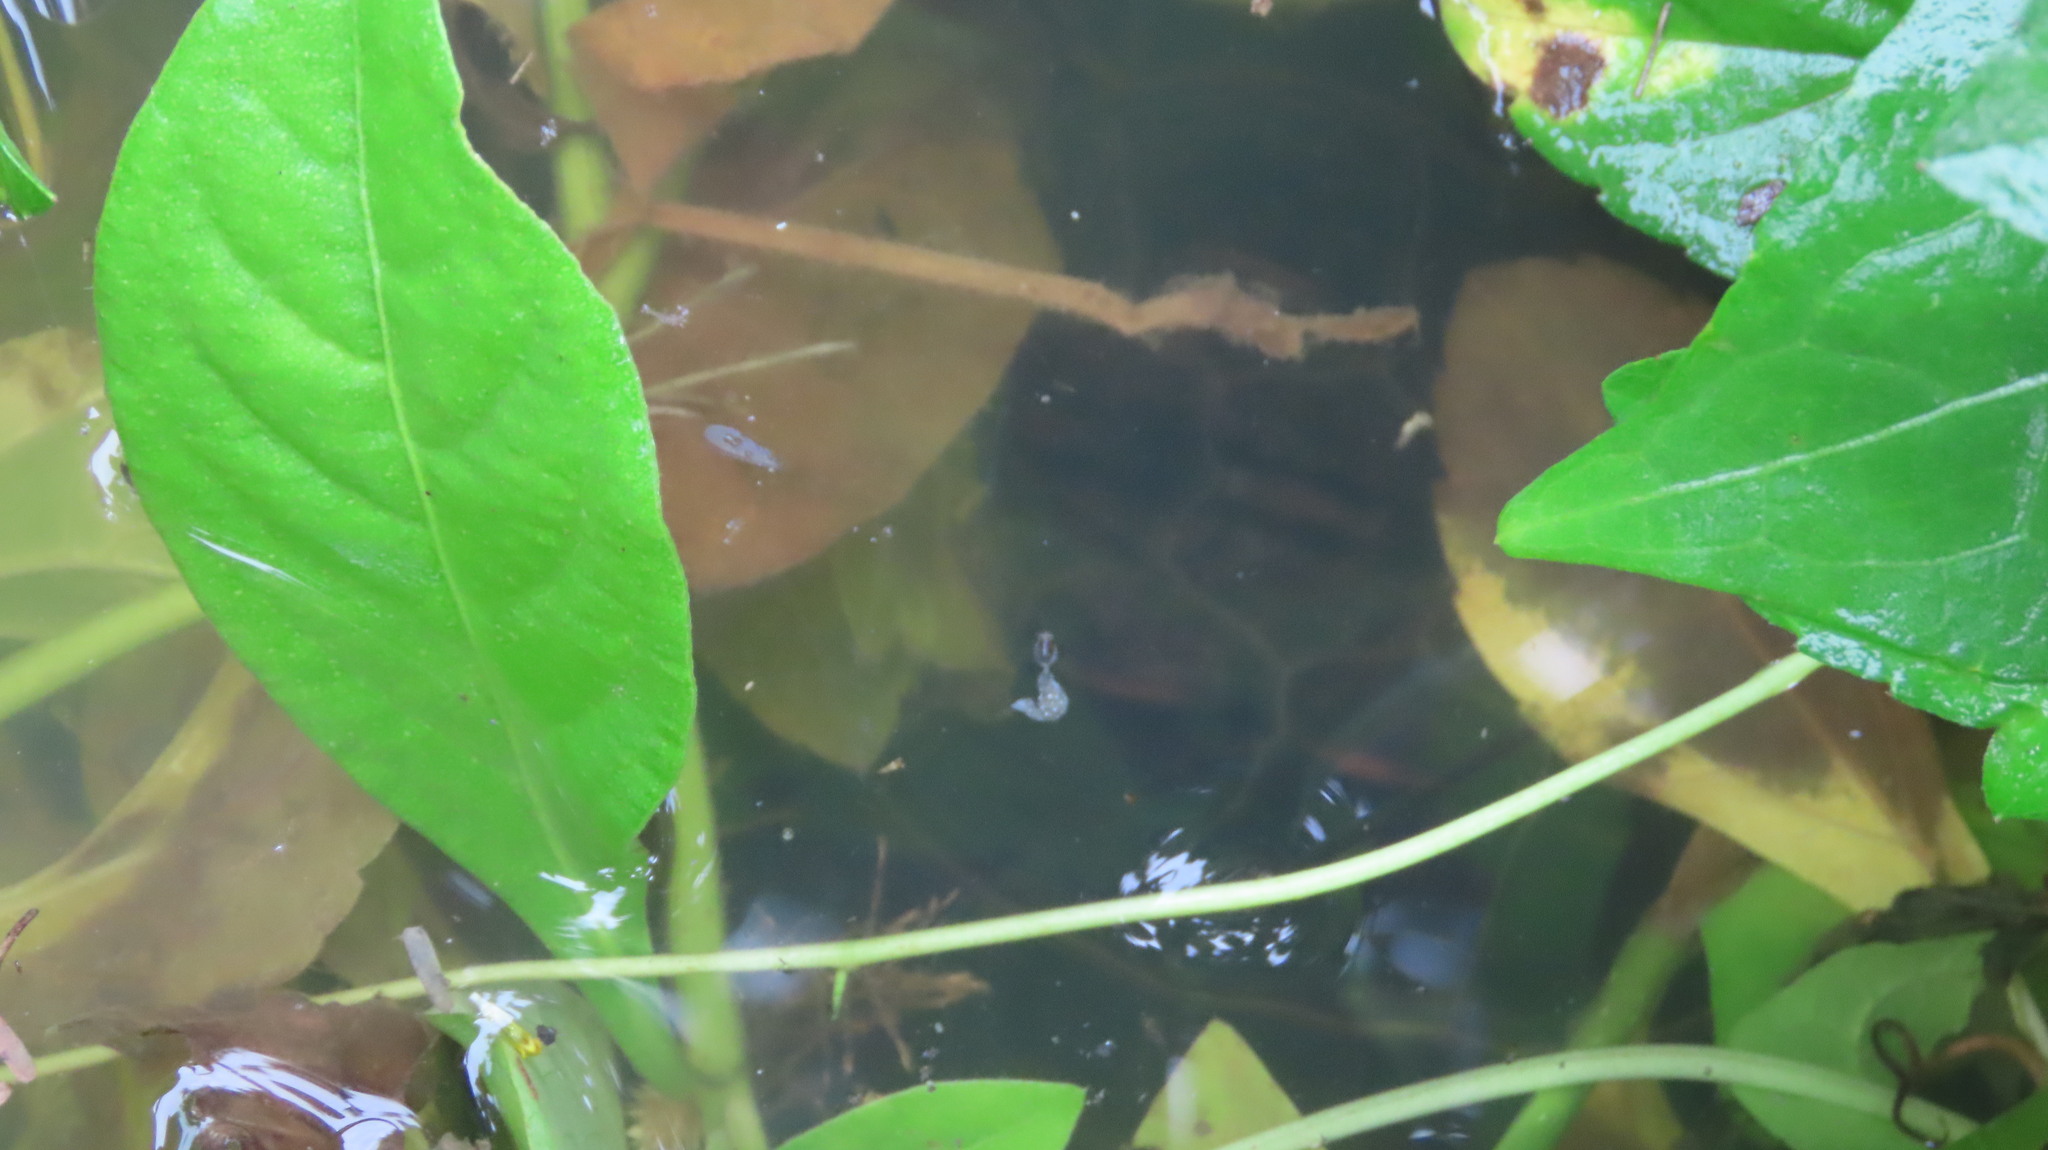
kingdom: Animalia
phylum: Chordata
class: Testudines
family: Geoemydidae
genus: Melanochelys
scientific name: Melanochelys trijuga
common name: Indian black turtle
